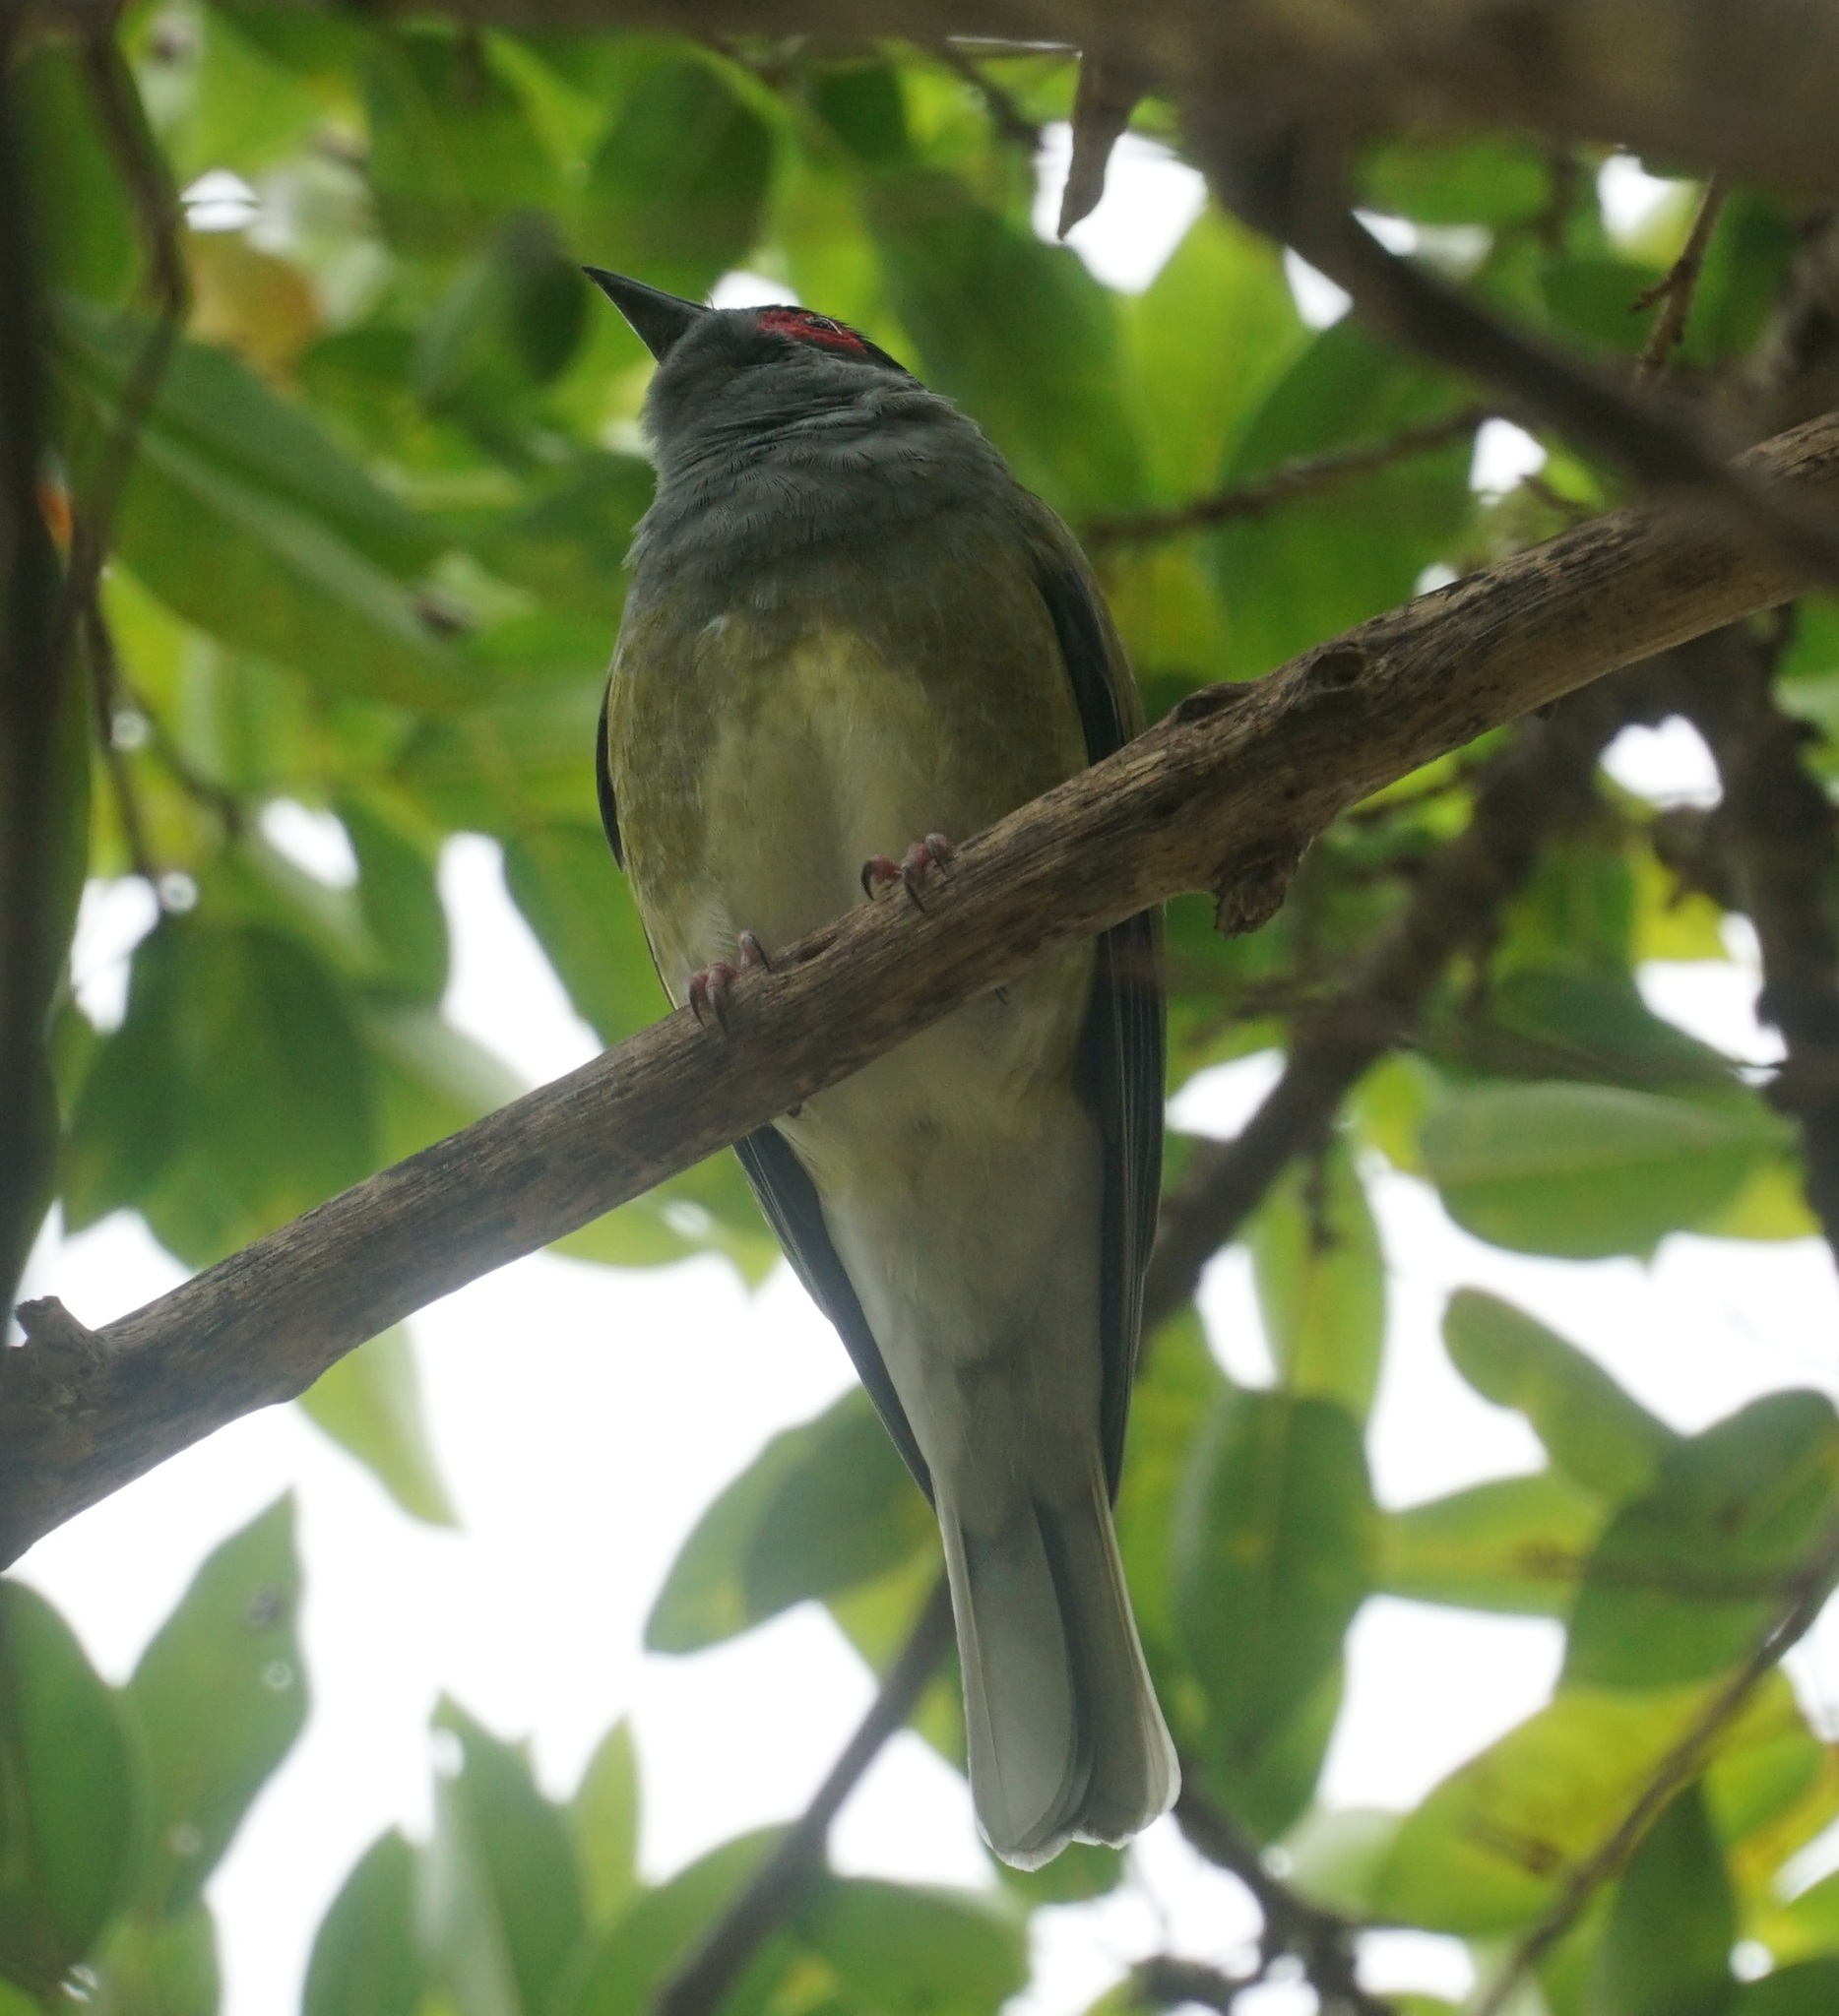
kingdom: Animalia
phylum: Chordata
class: Aves
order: Passeriformes
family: Oriolidae
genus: Sphecotheres
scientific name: Sphecotheres vieilloti
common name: Australasian figbird
